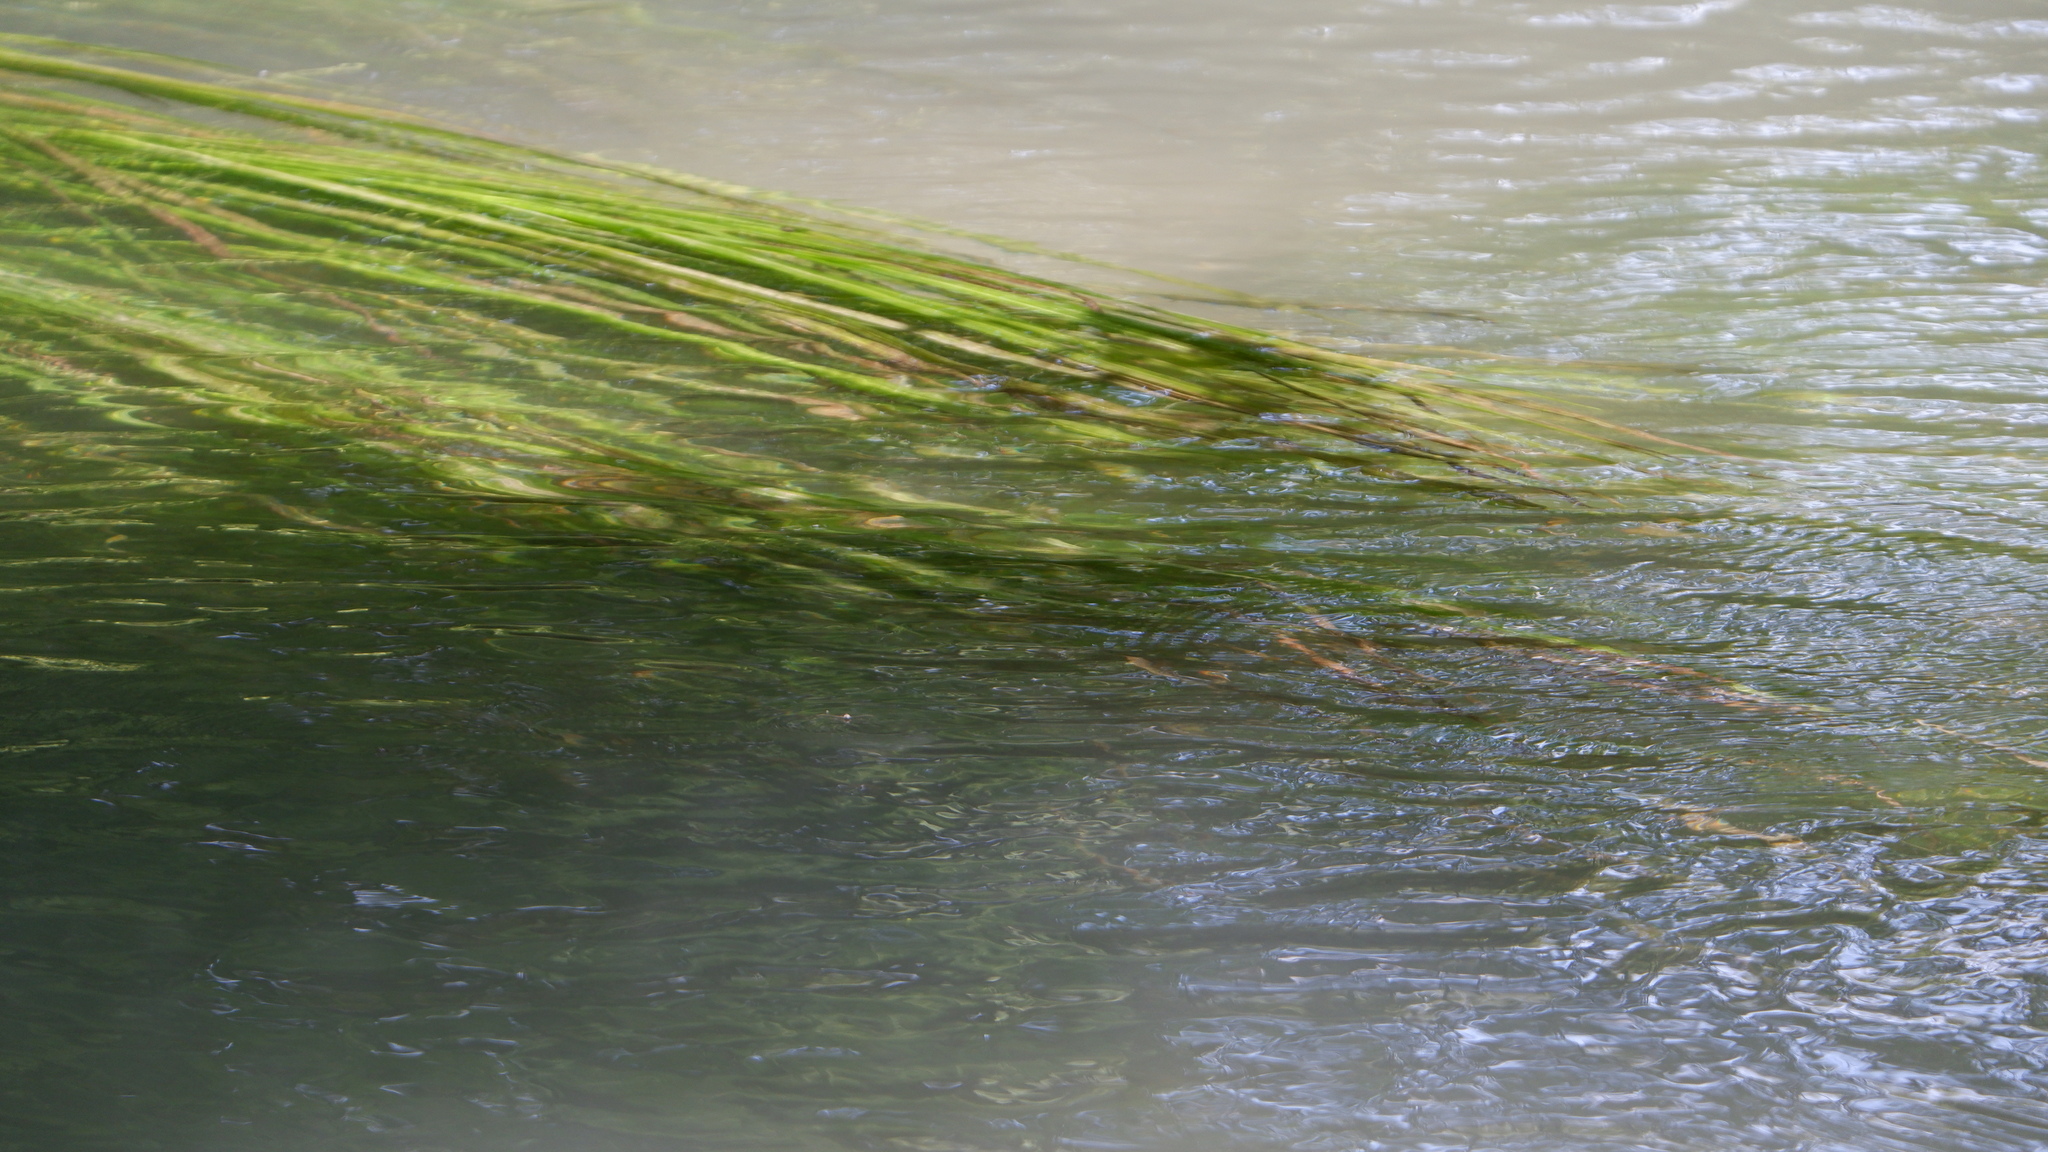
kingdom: Plantae
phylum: Tracheophyta
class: Liliopsida
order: Poales
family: Poaceae
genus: Zizania
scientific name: Zizania texana
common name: Texas wild rice
